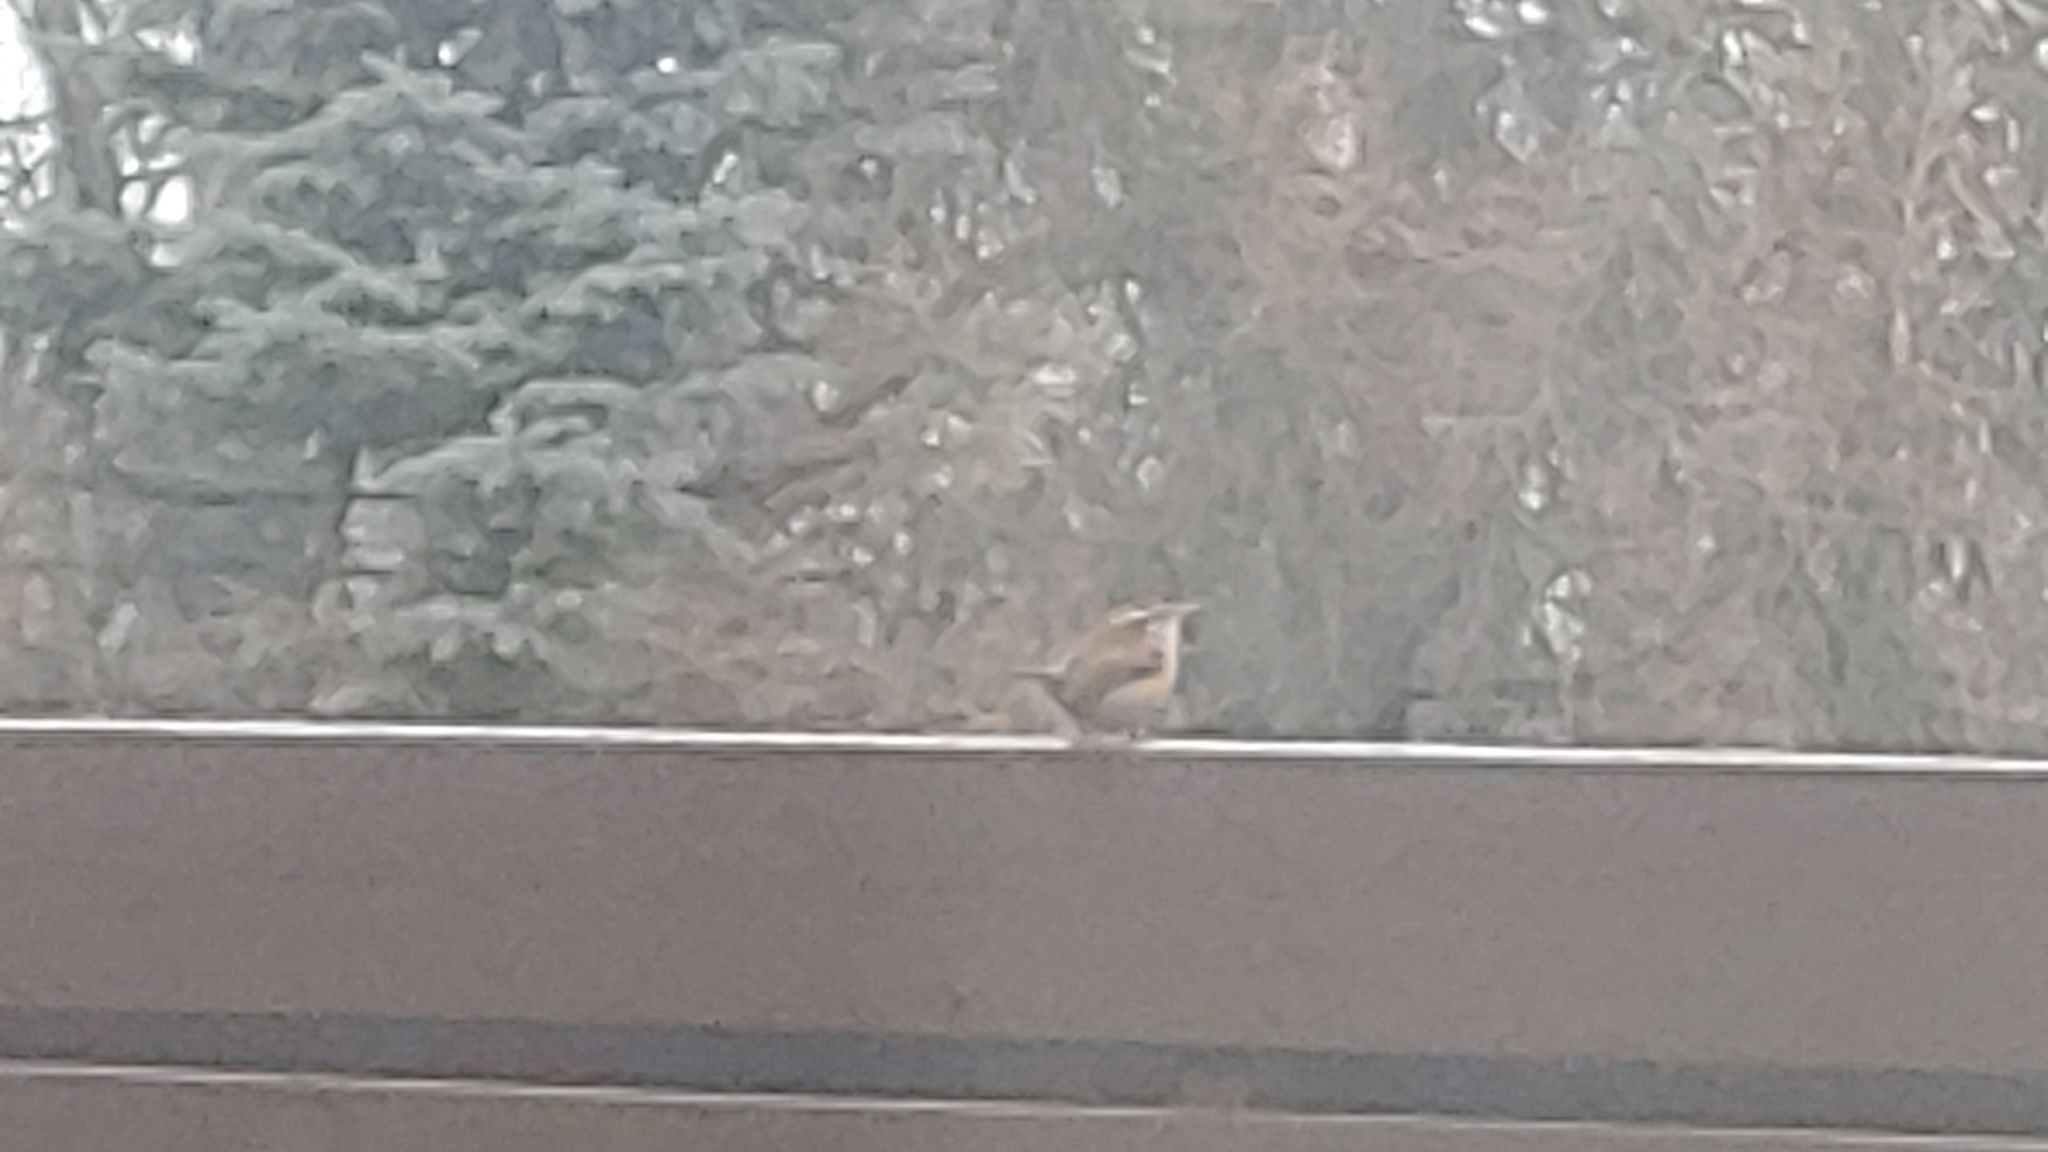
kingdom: Animalia
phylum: Chordata
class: Aves
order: Passeriformes
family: Troglodytidae
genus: Thryothorus
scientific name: Thryothorus ludovicianus
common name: Carolina wren
